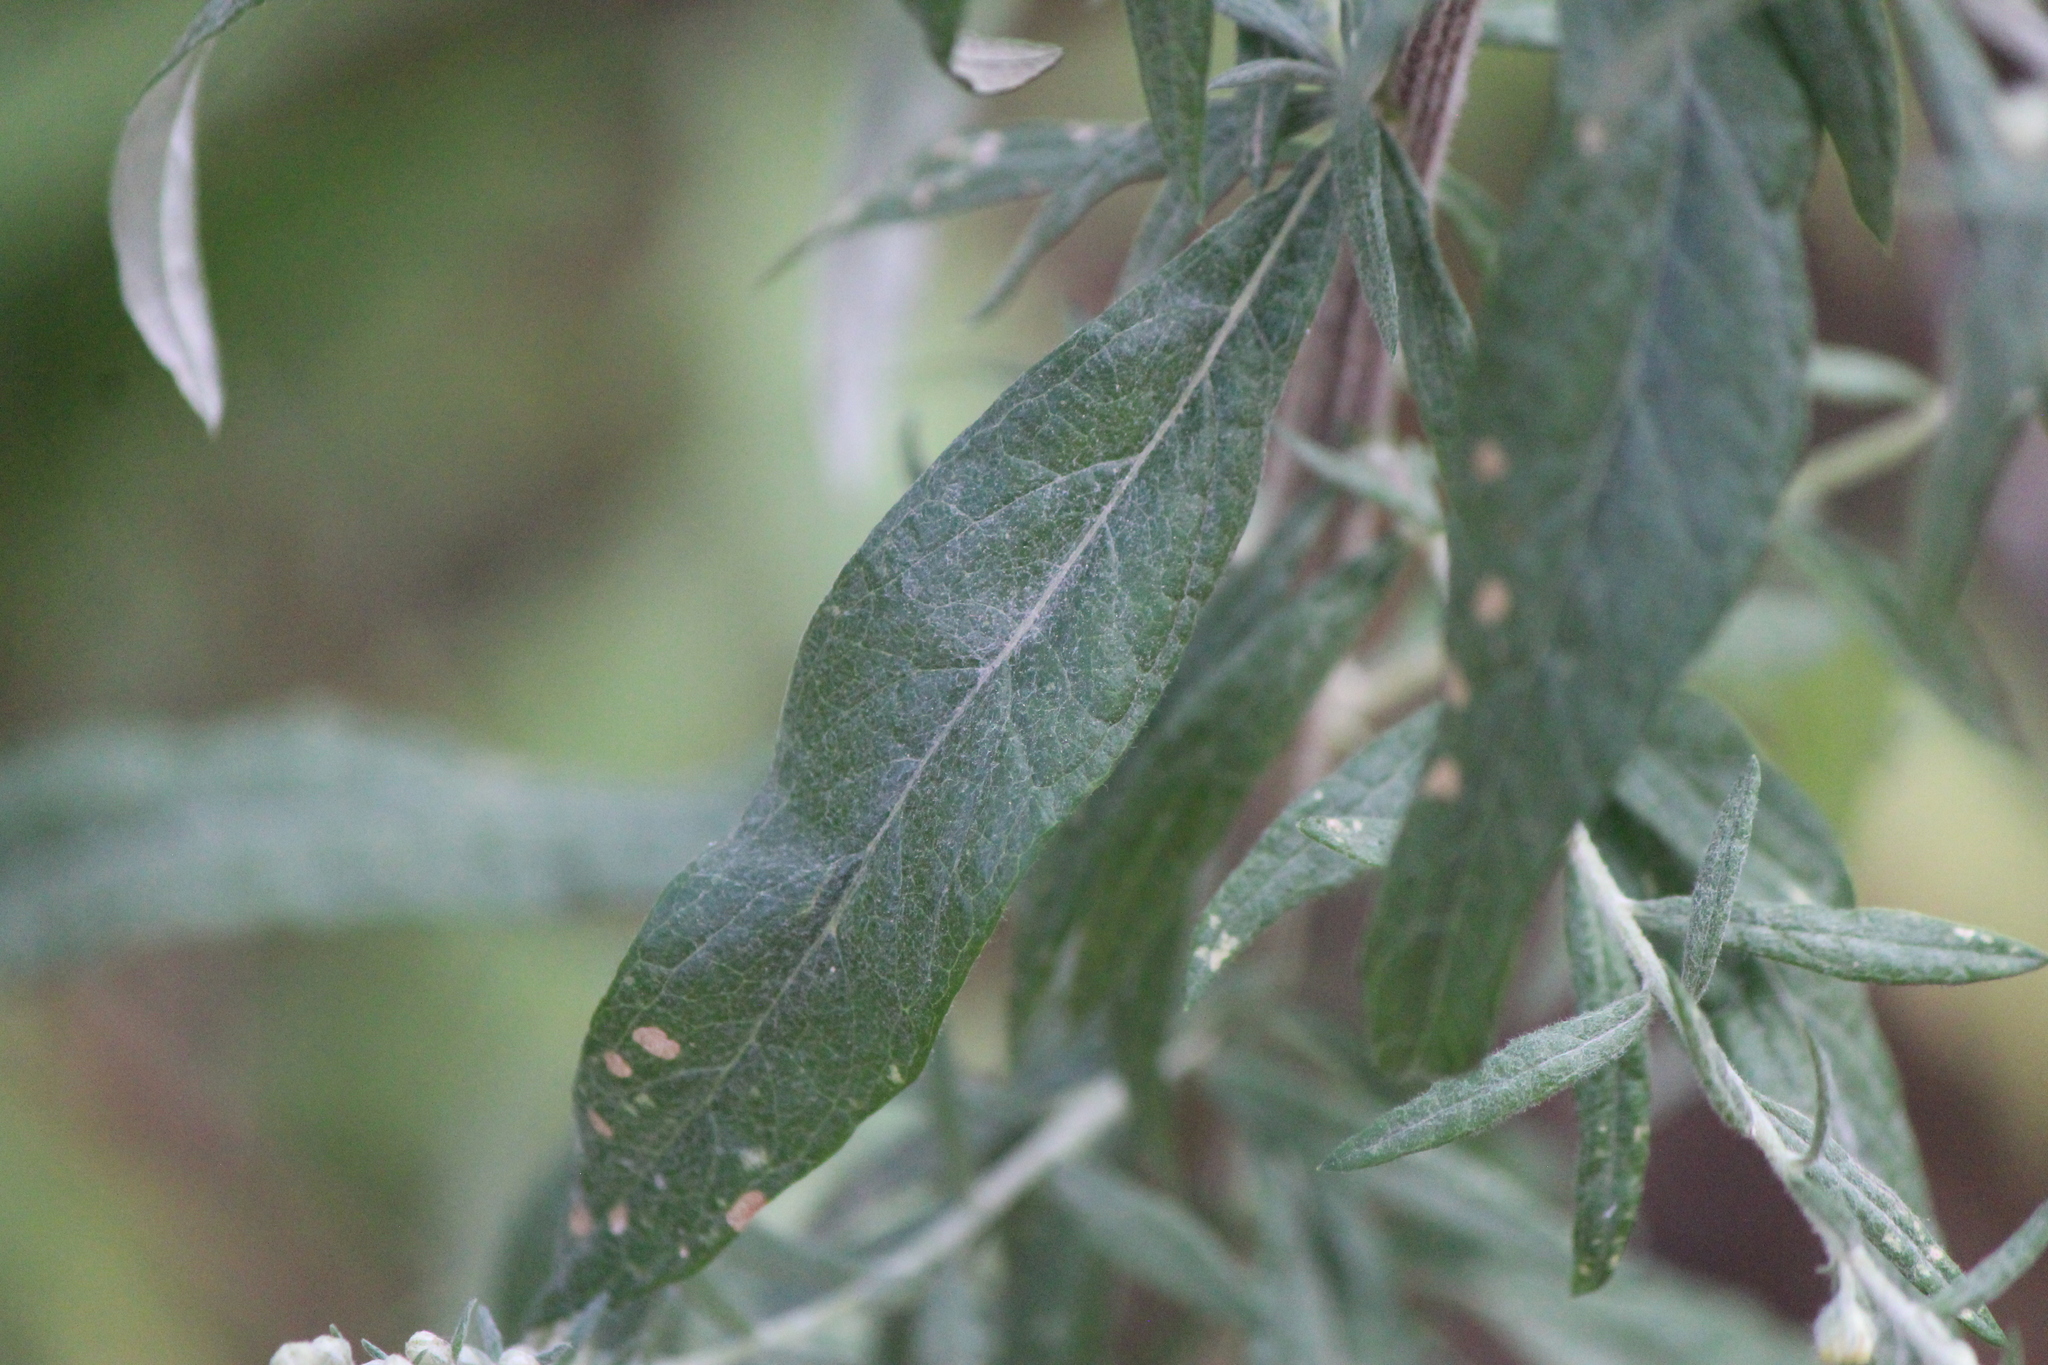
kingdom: Plantae
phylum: Tracheophyta
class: Magnoliopsida
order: Asterales
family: Asteraceae
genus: Artemisia
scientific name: Artemisia ludoviciana
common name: Western mugwort
